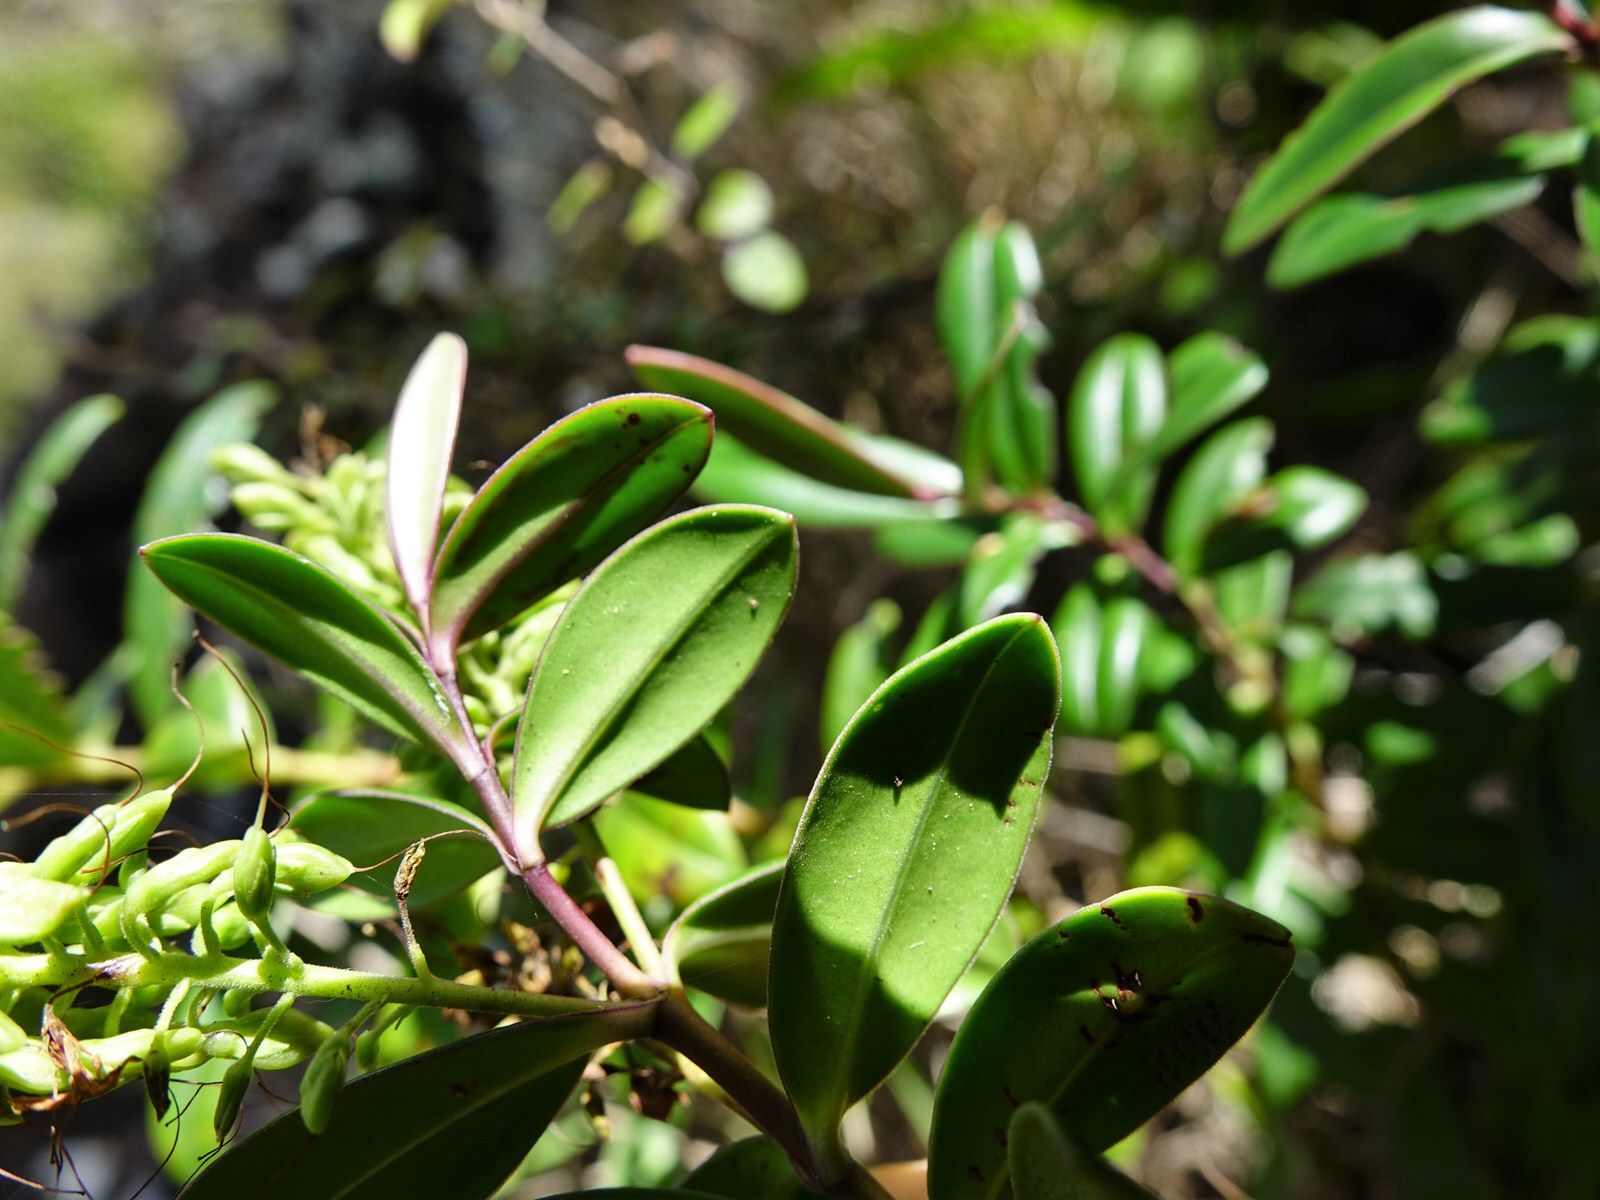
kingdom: Plantae
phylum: Tracheophyta
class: Magnoliopsida
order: Lamiales
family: Plantaginaceae
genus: Veronica
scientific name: Veronica obtusata
